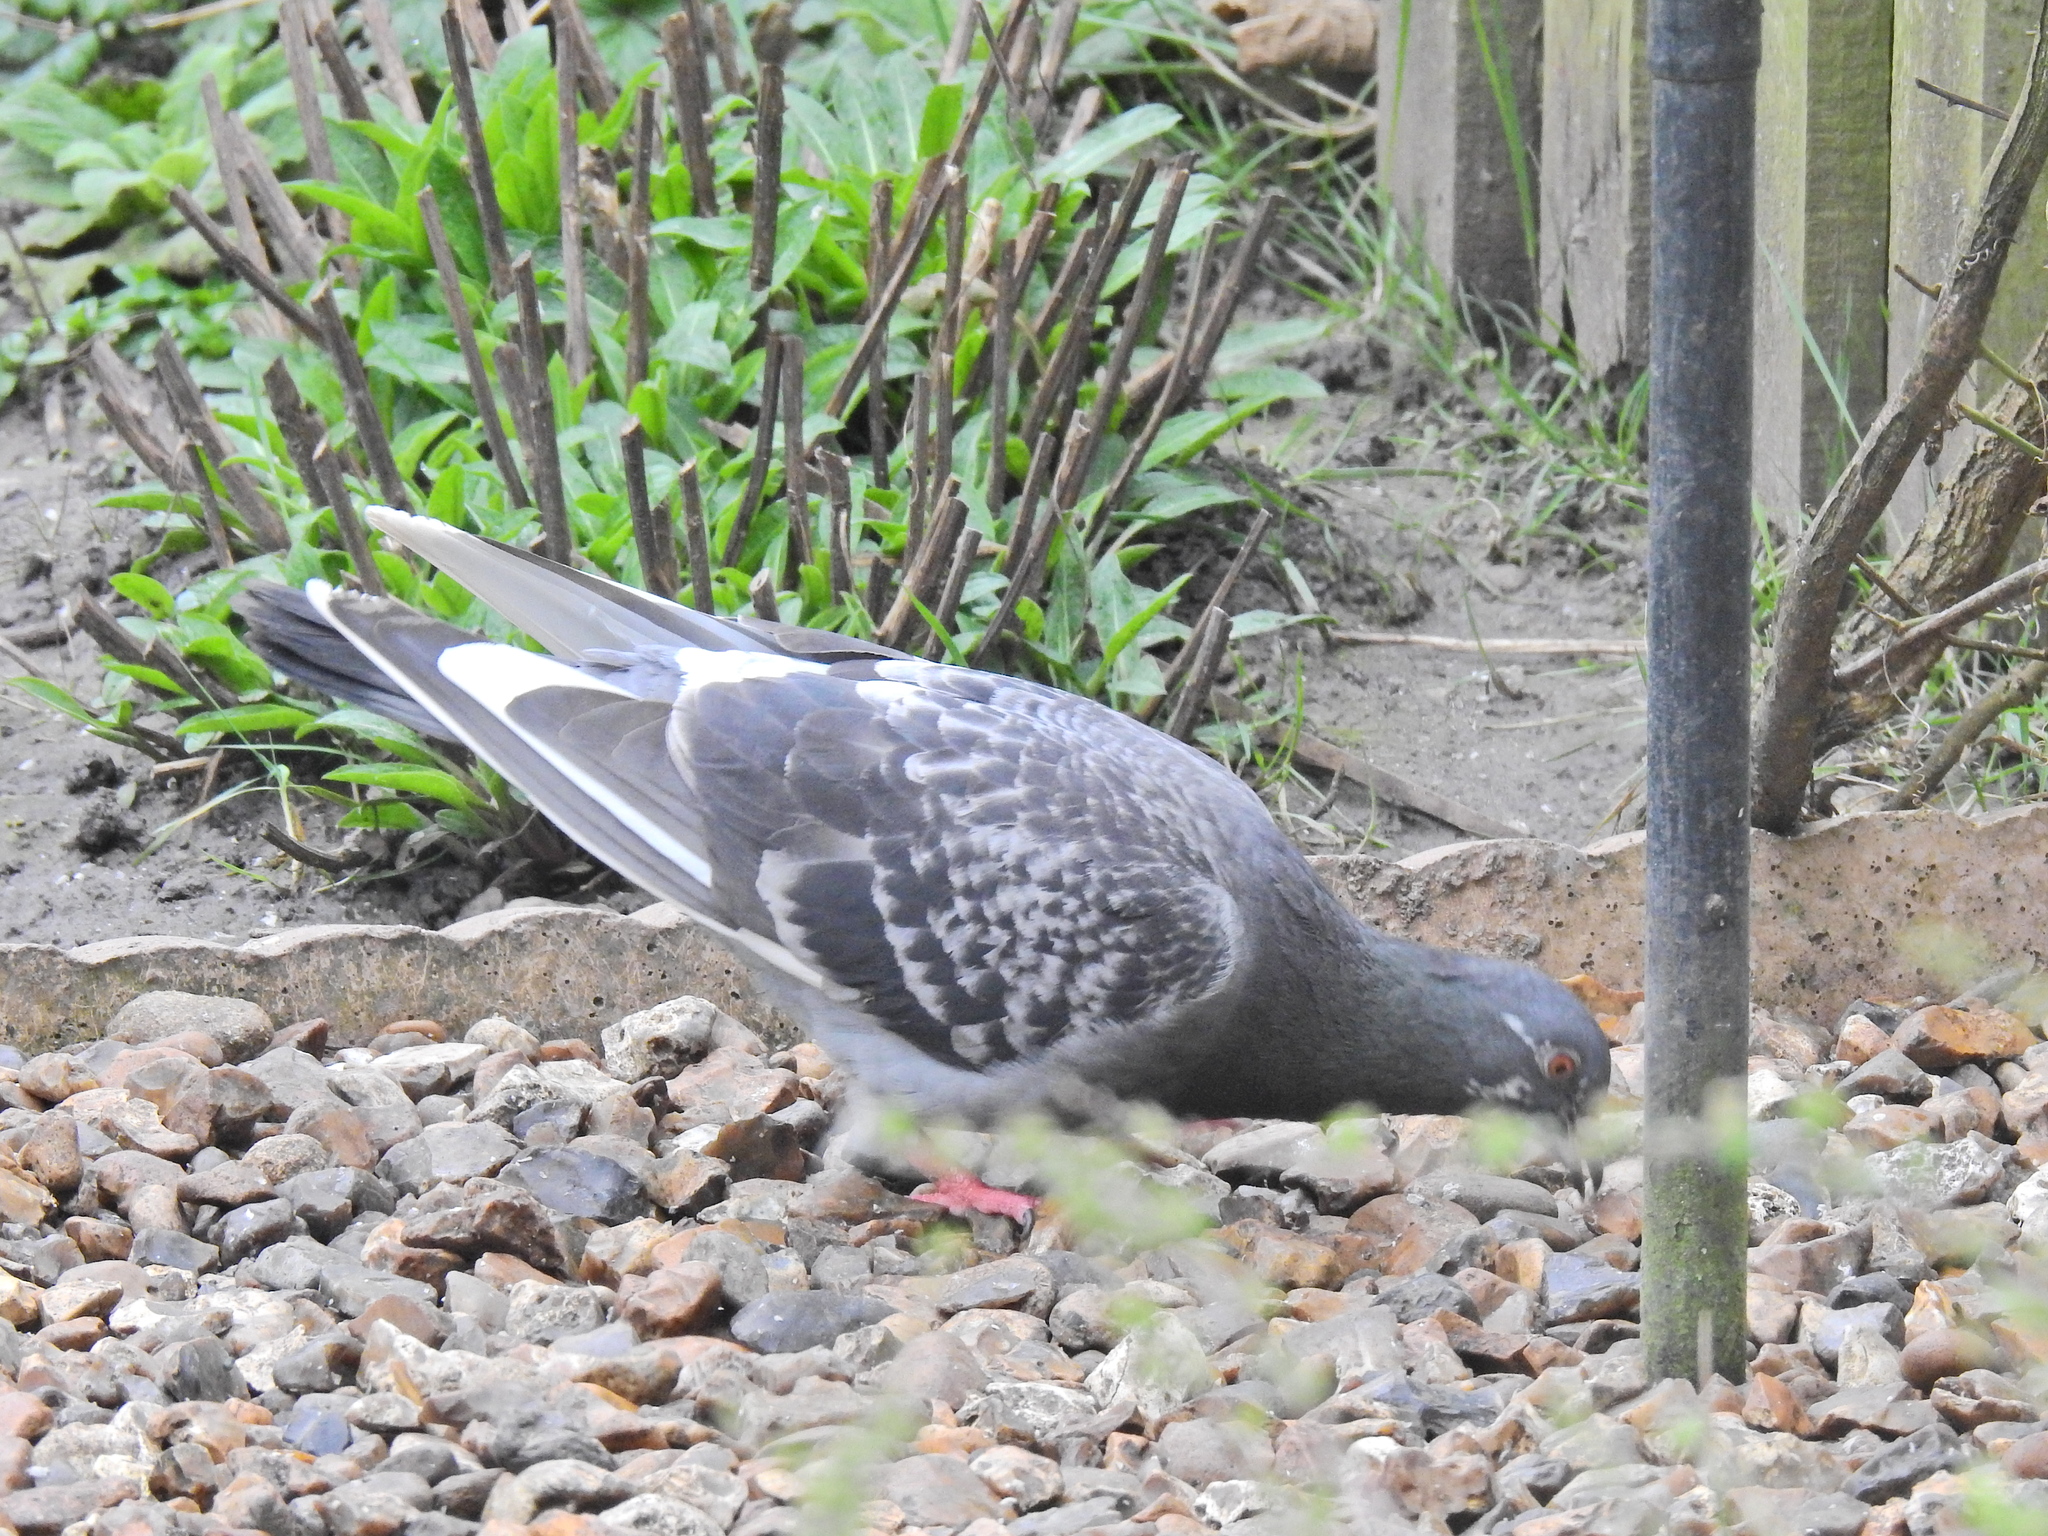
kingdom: Animalia
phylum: Chordata
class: Aves
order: Columbiformes
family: Columbidae
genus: Columba
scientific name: Columba livia
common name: Rock pigeon
